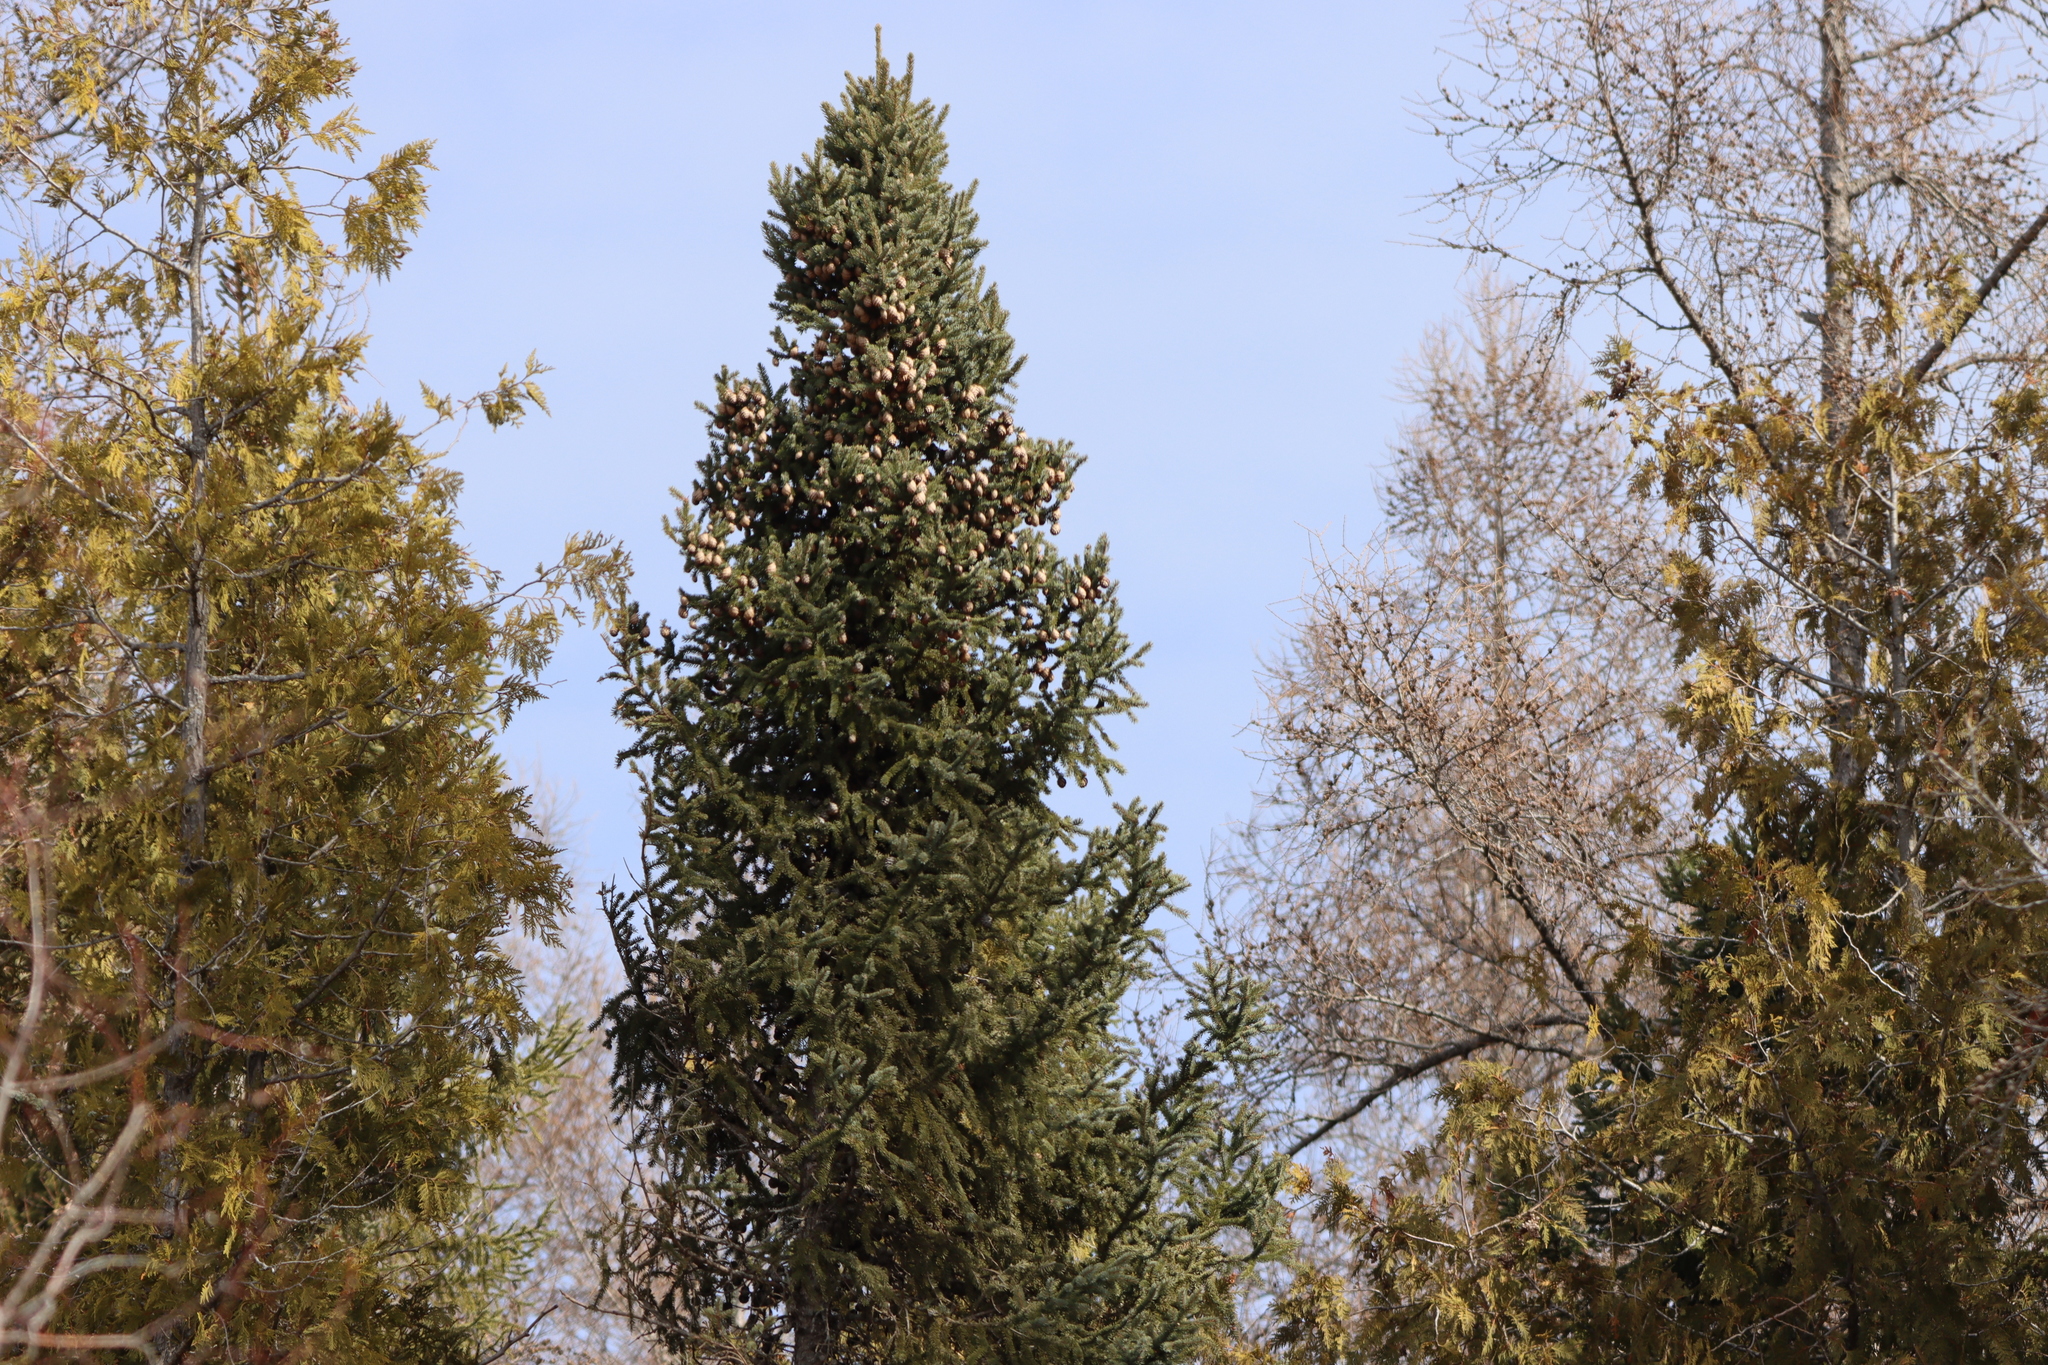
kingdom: Plantae
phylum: Tracheophyta
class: Pinopsida
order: Pinales
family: Pinaceae
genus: Picea
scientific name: Picea mariana
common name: Black spruce
